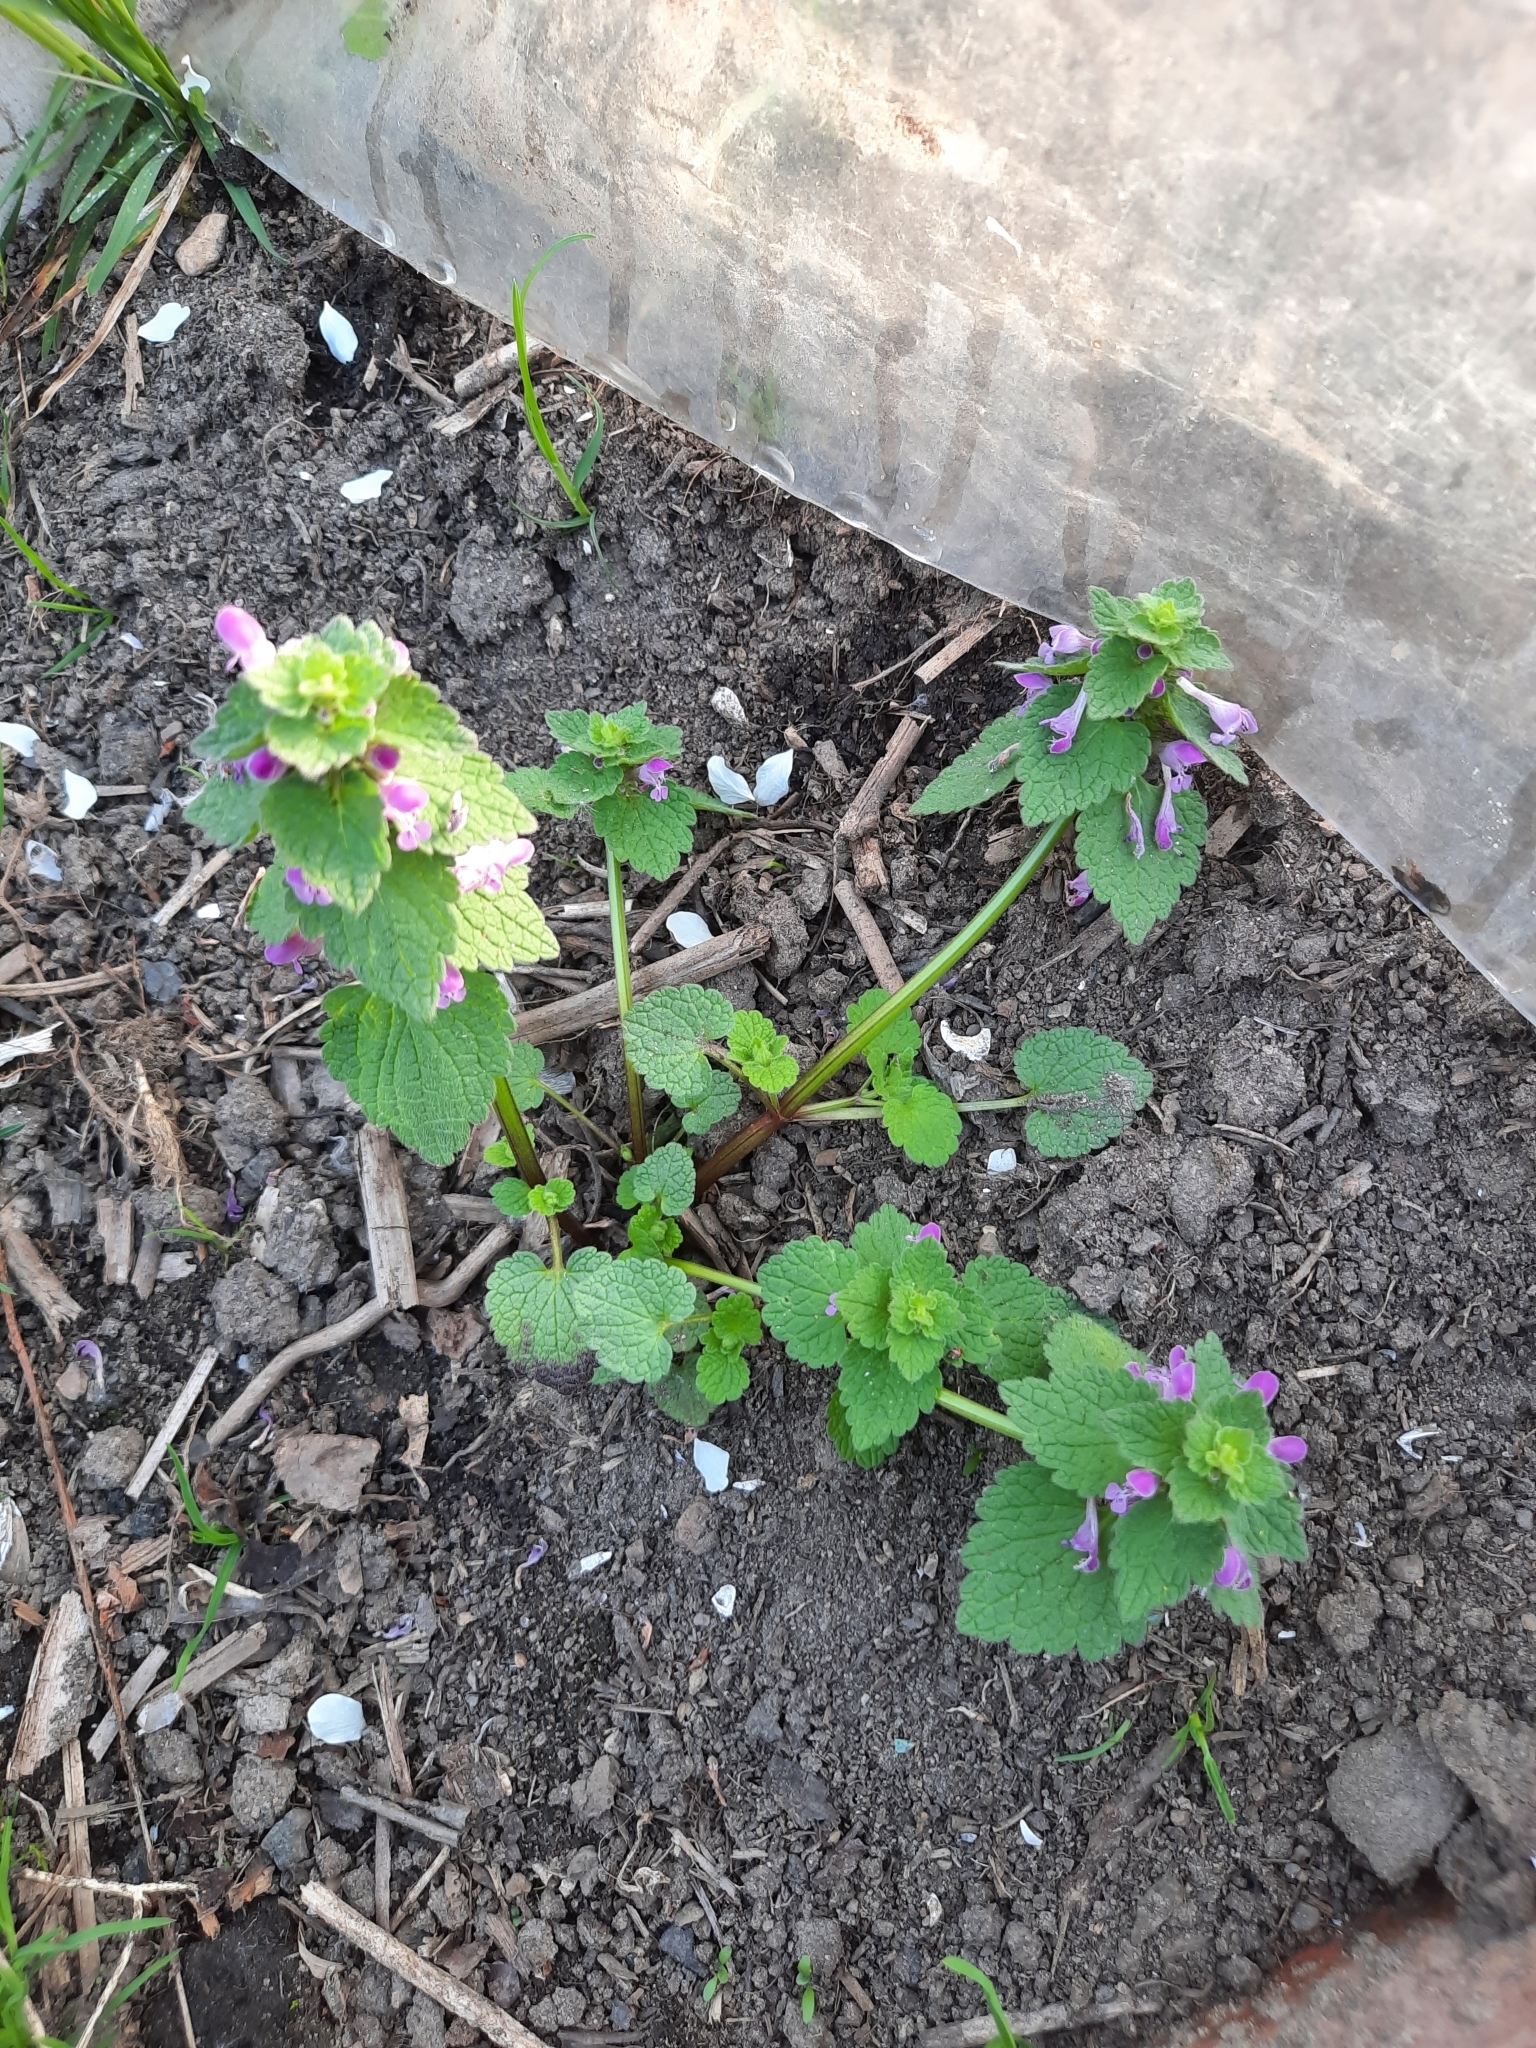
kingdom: Plantae
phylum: Tracheophyta
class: Magnoliopsida
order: Lamiales
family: Lamiaceae
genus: Lamium
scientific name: Lamium purpureum
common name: Red dead-nettle
